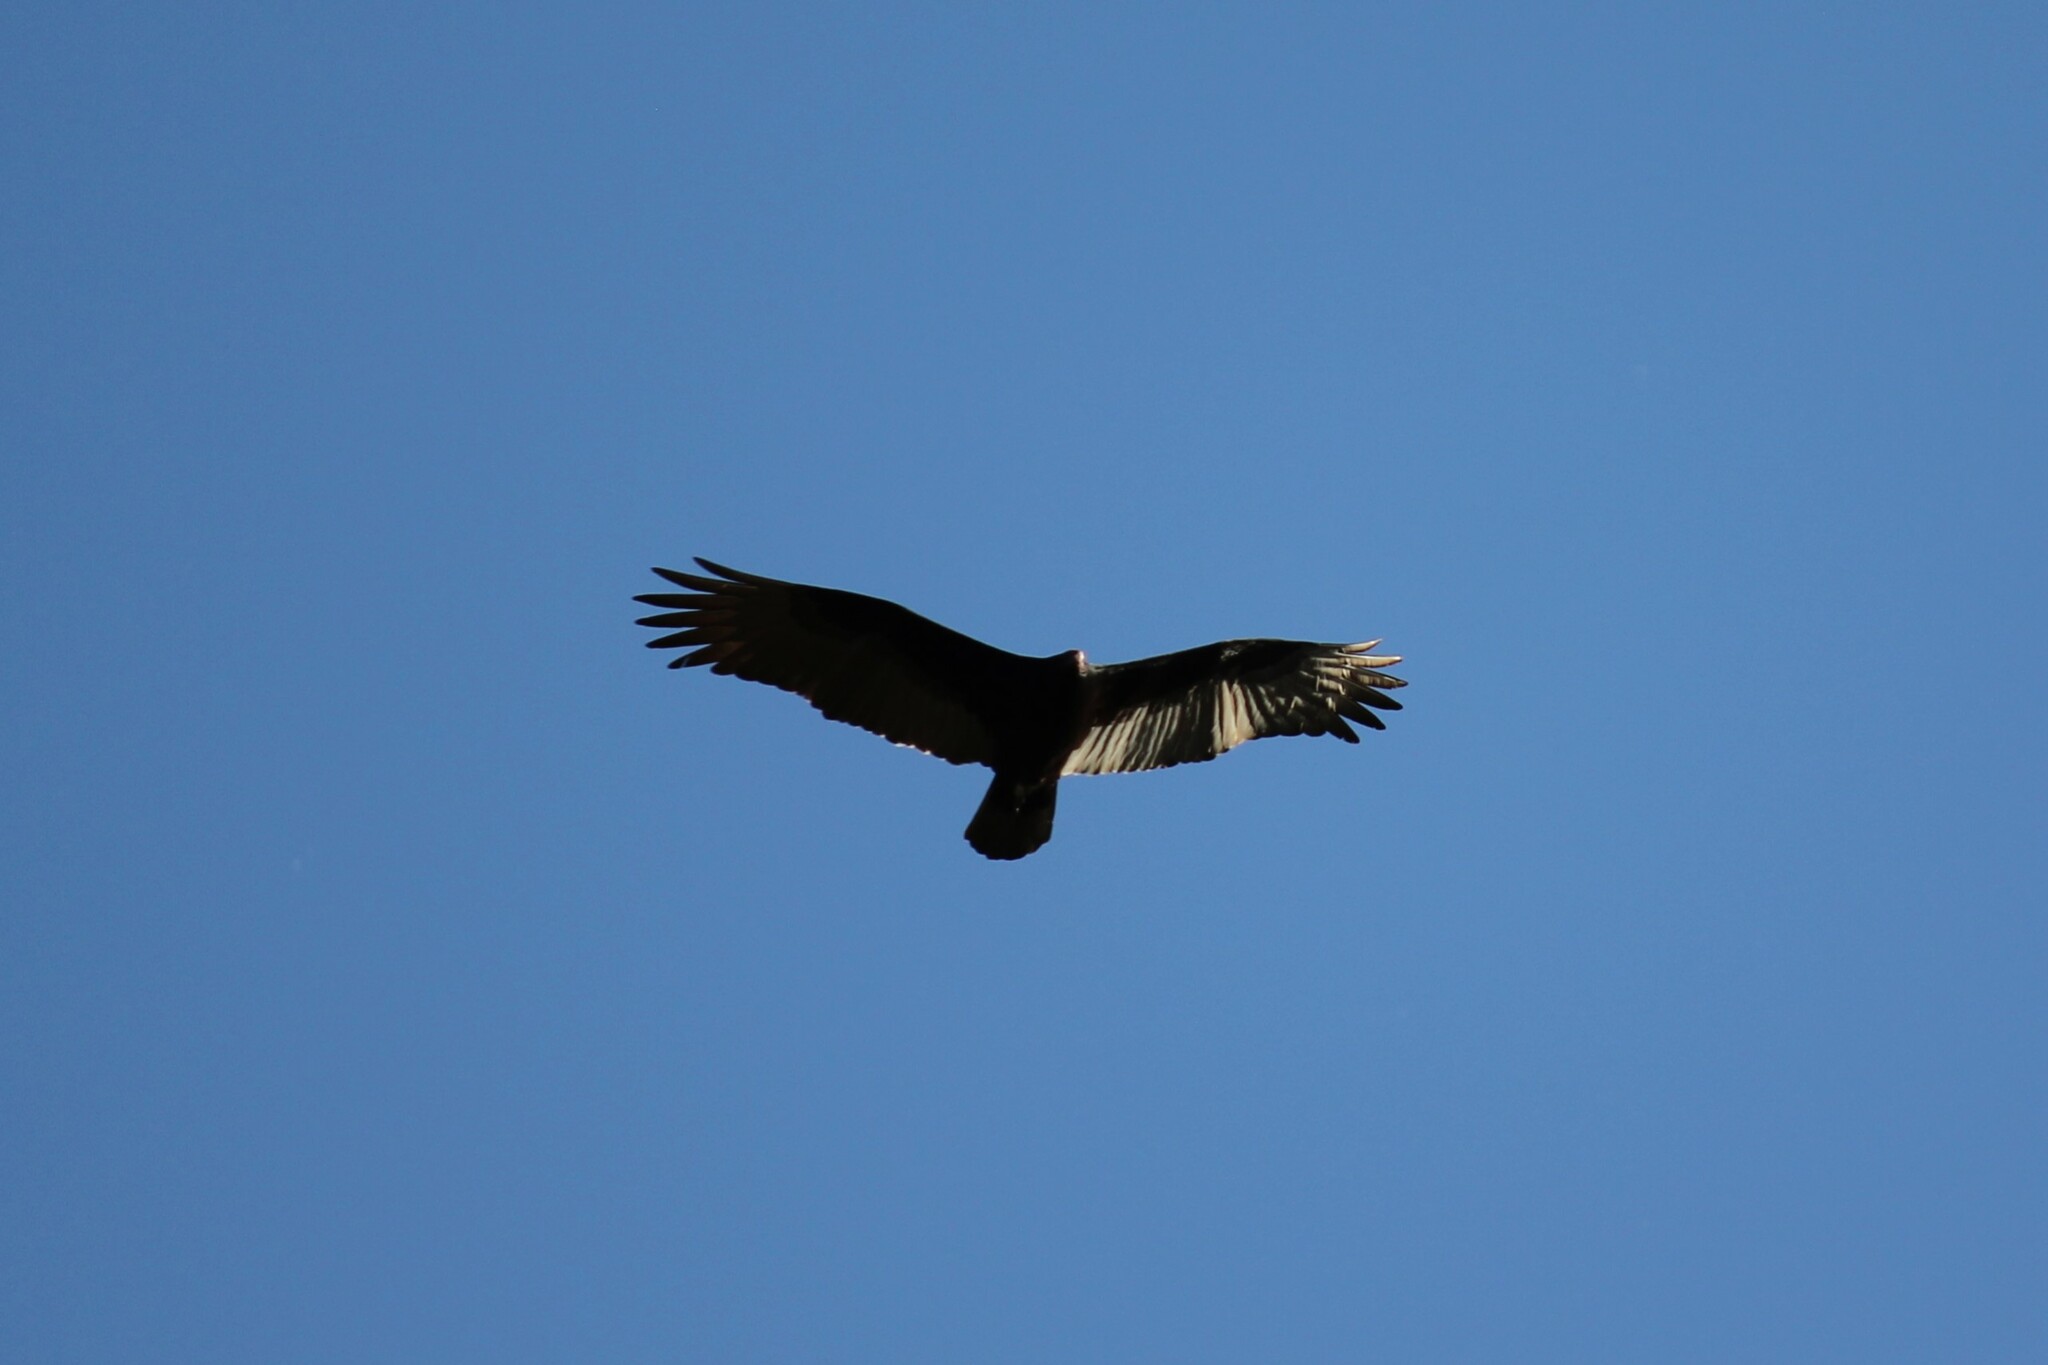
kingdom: Animalia
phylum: Chordata
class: Aves
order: Accipitriformes
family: Cathartidae
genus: Cathartes
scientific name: Cathartes aura
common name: Turkey vulture
